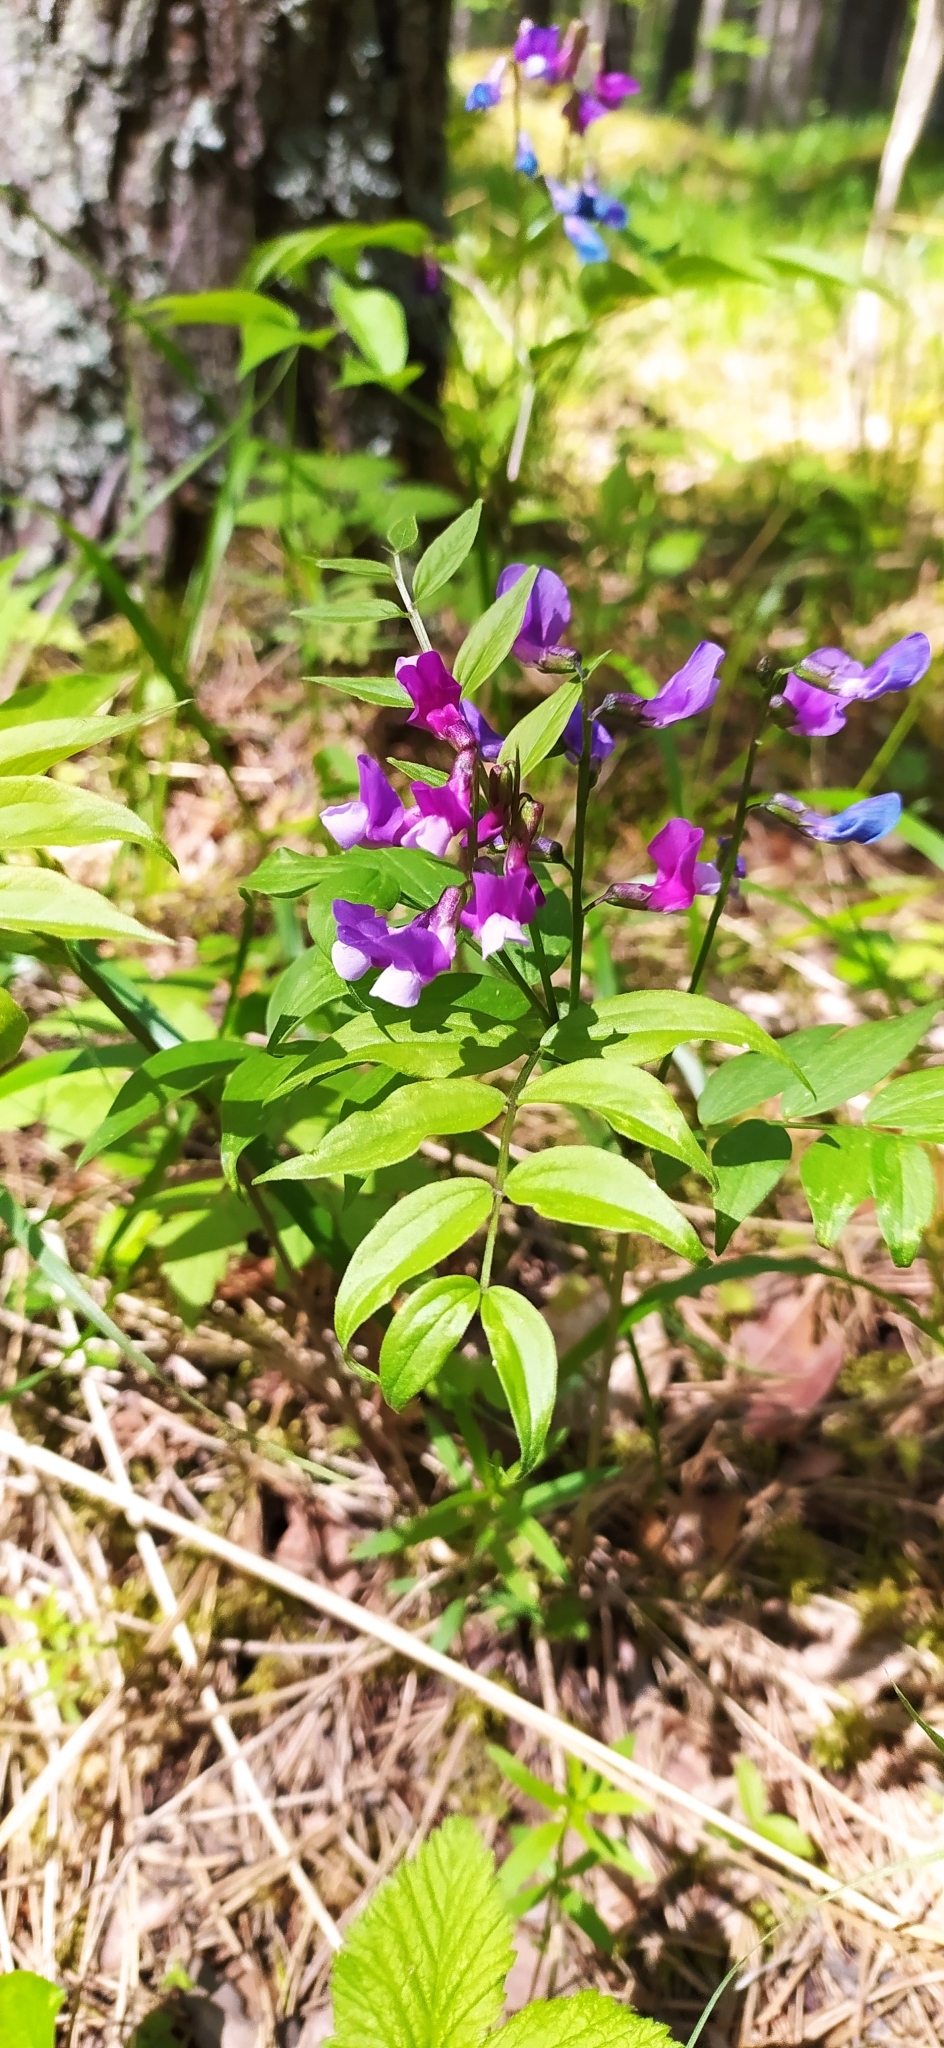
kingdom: Plantae
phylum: Tracheophyta
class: Magnoliopsida
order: Fabales
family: Fabaceae
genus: Lathyrus
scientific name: Lathyrus vernus
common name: Spring pea
